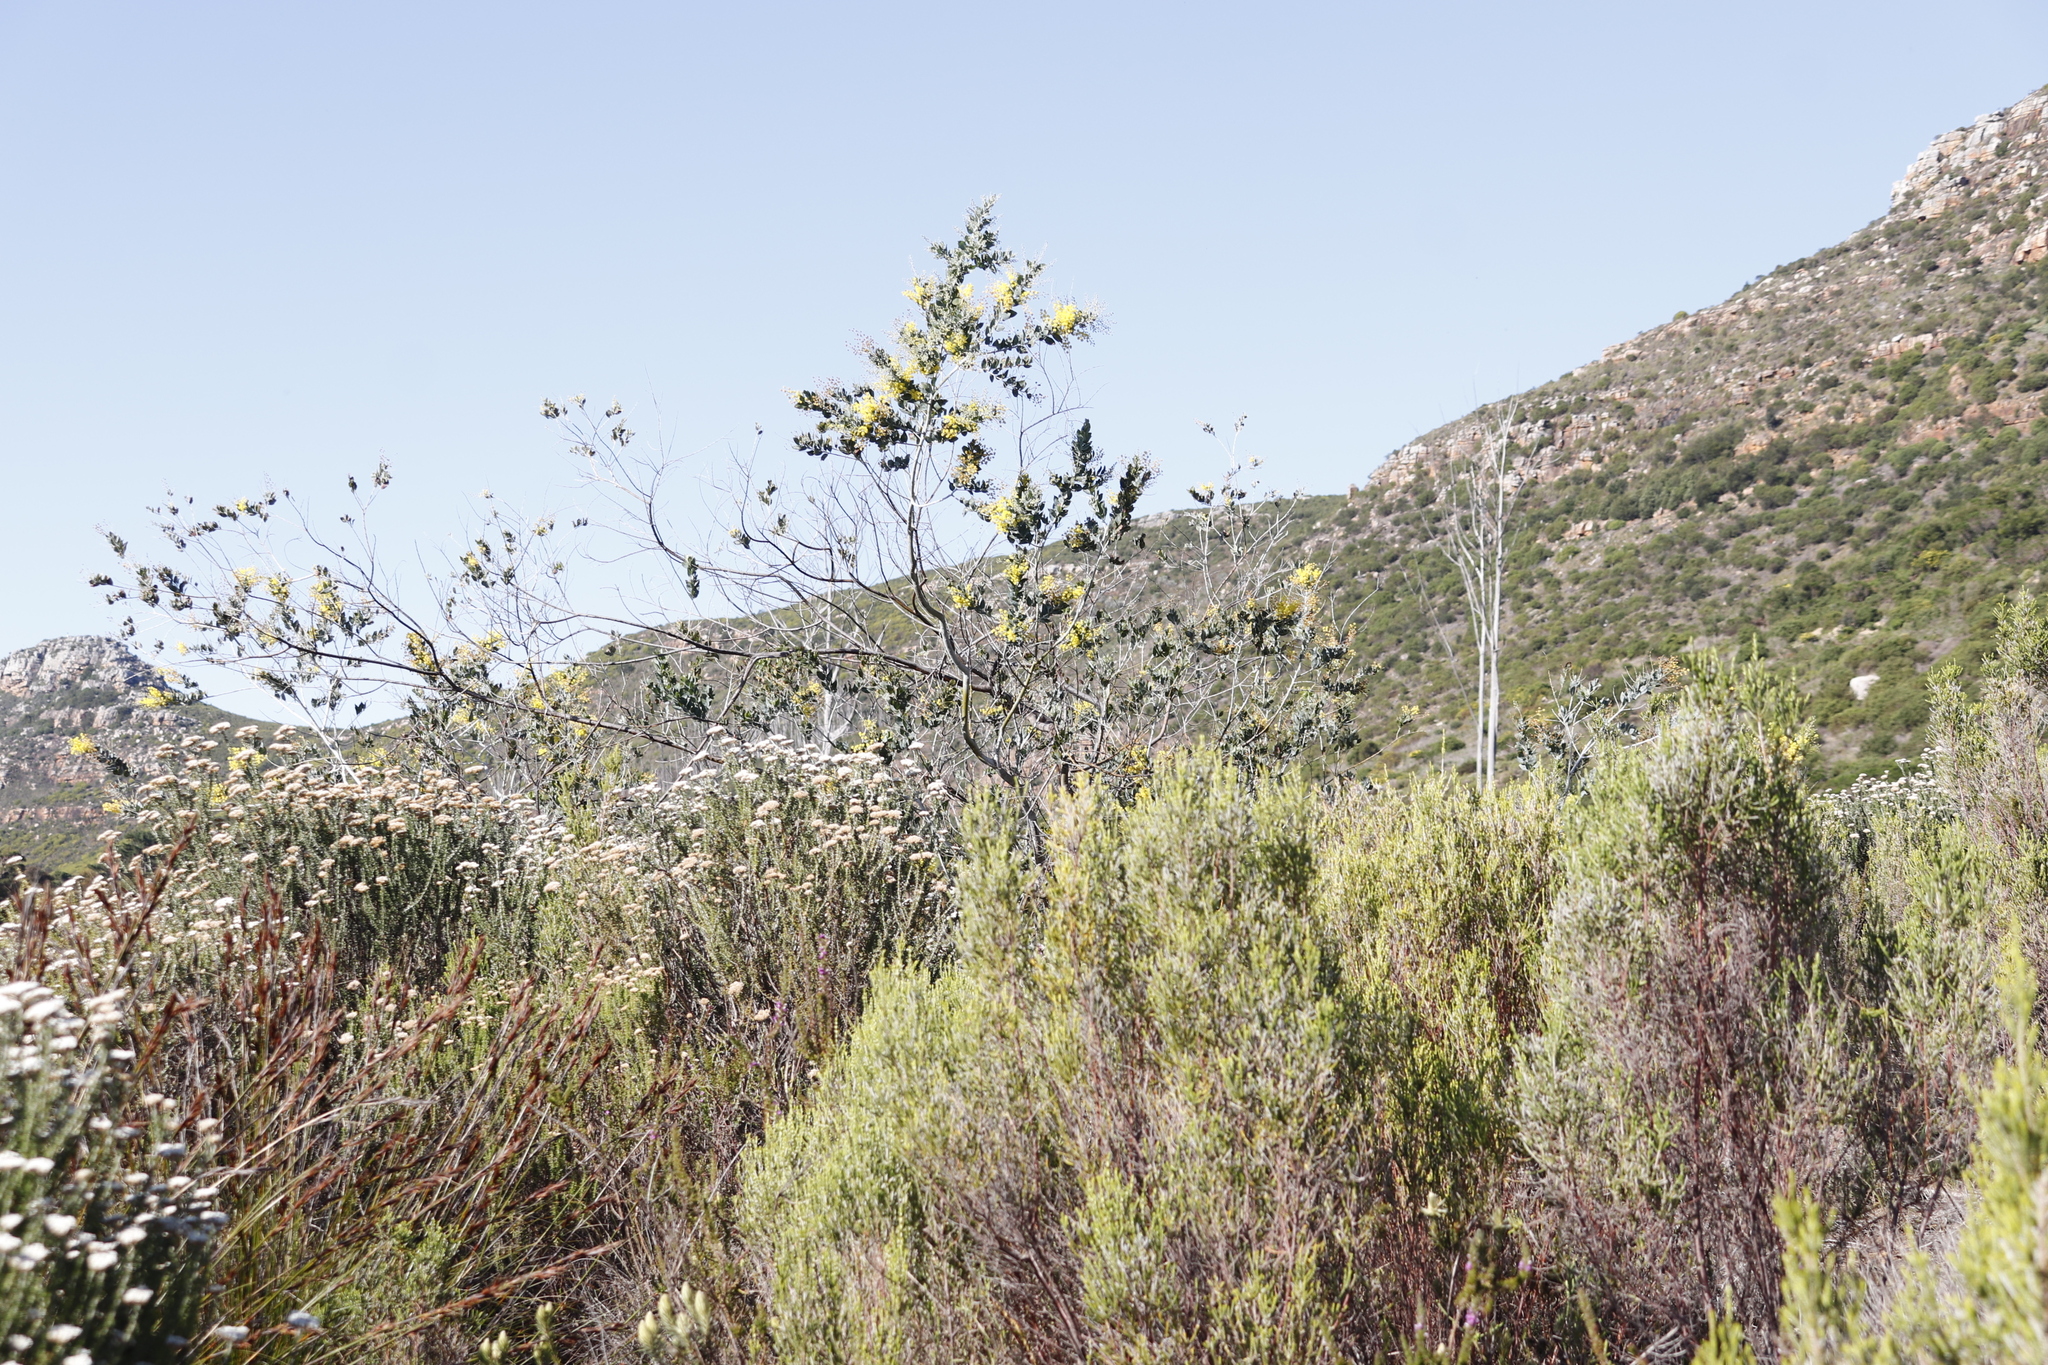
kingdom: Plantae
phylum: Tracheophyta
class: Magnoliopsida
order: Fabales
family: Fabaceae
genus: Acacia
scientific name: Acacia podalyriifolia
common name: Pearl wattle
